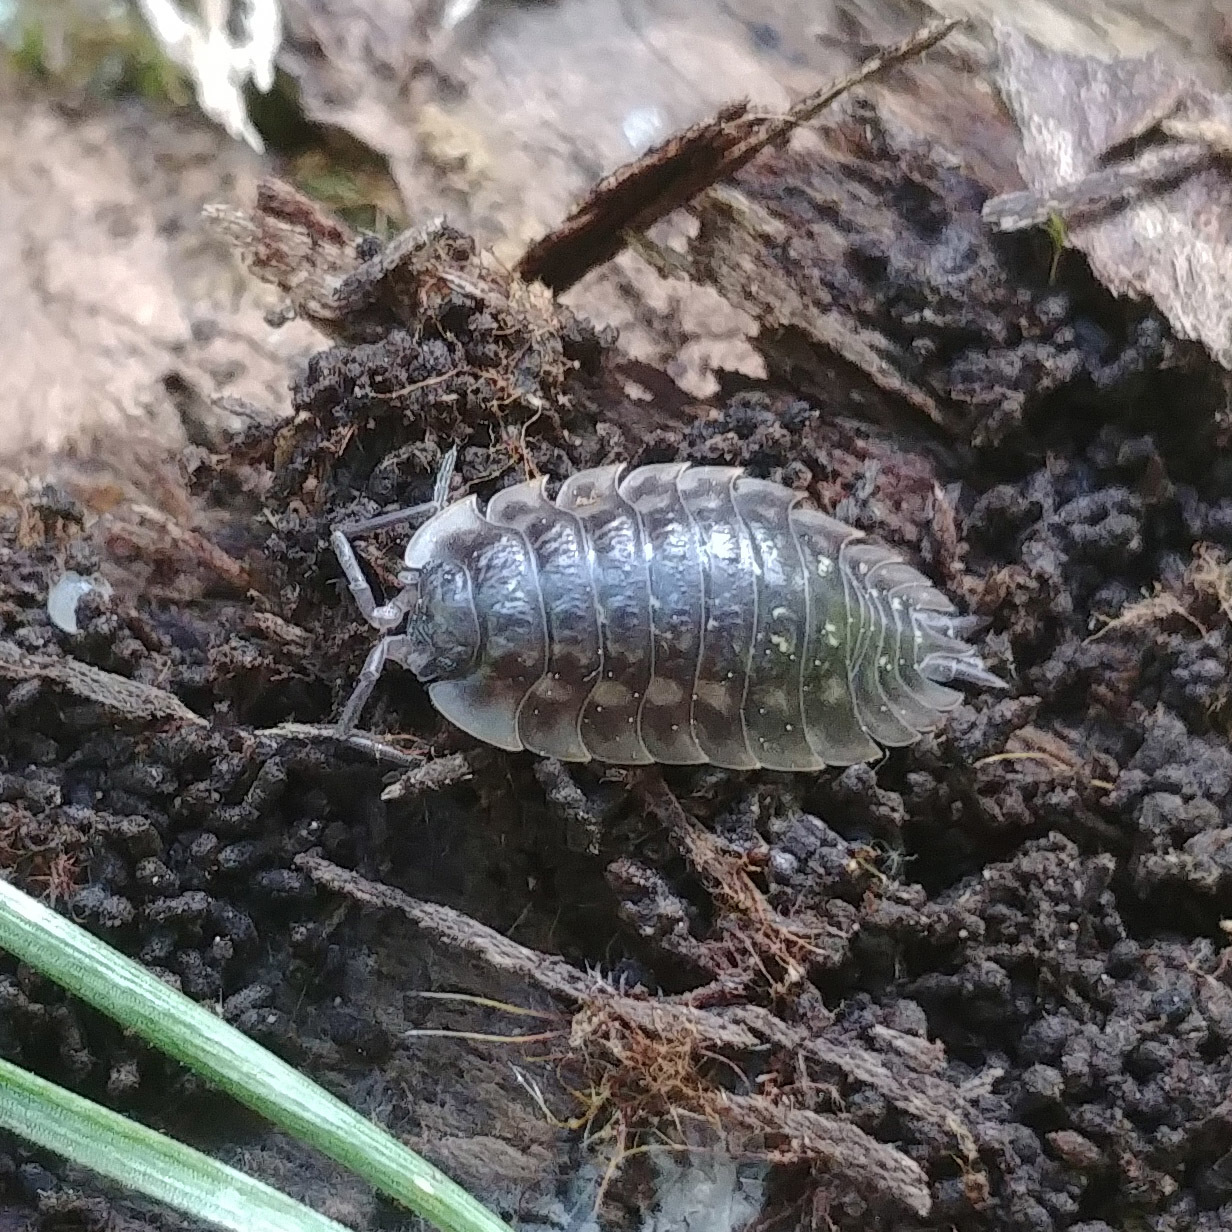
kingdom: Animalia
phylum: Arthropoda
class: Malacostraca
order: Isopoda
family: Oniscidae
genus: Oniscus
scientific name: Oniscus asellus
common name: Common shiny woodlouse
